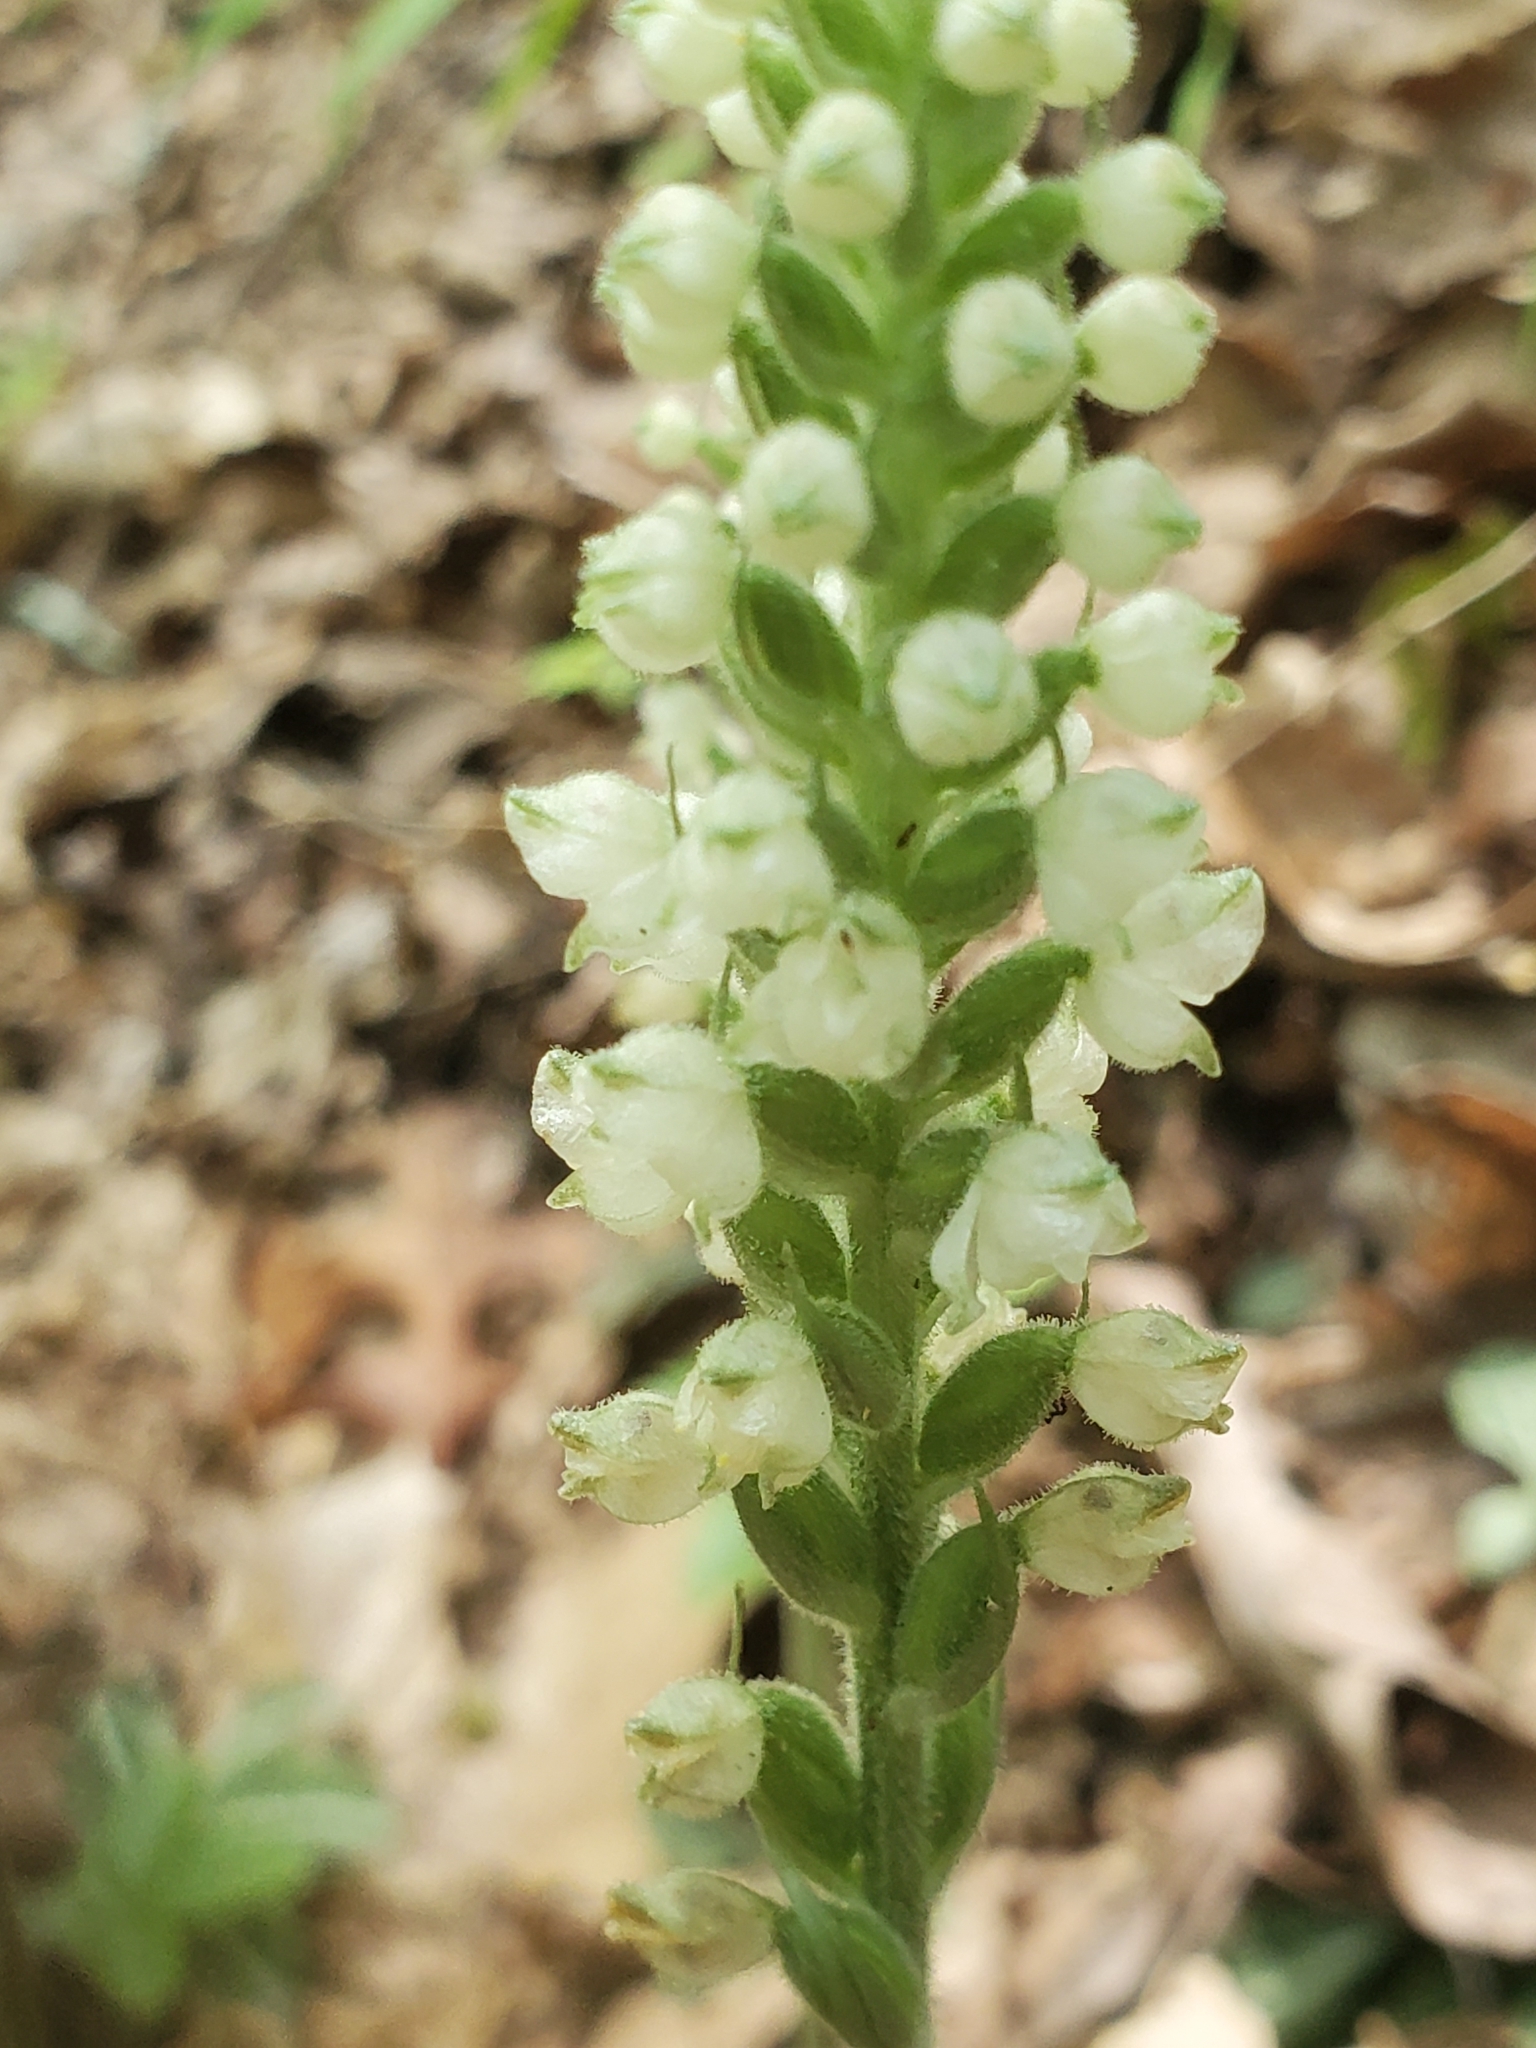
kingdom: Plantae
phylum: Tracheophyta
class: Liliopsida
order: Asparagales
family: Orchidaceae
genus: Goodyera
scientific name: Goodyera pubescens
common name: Downy rattlesnake-plantain
